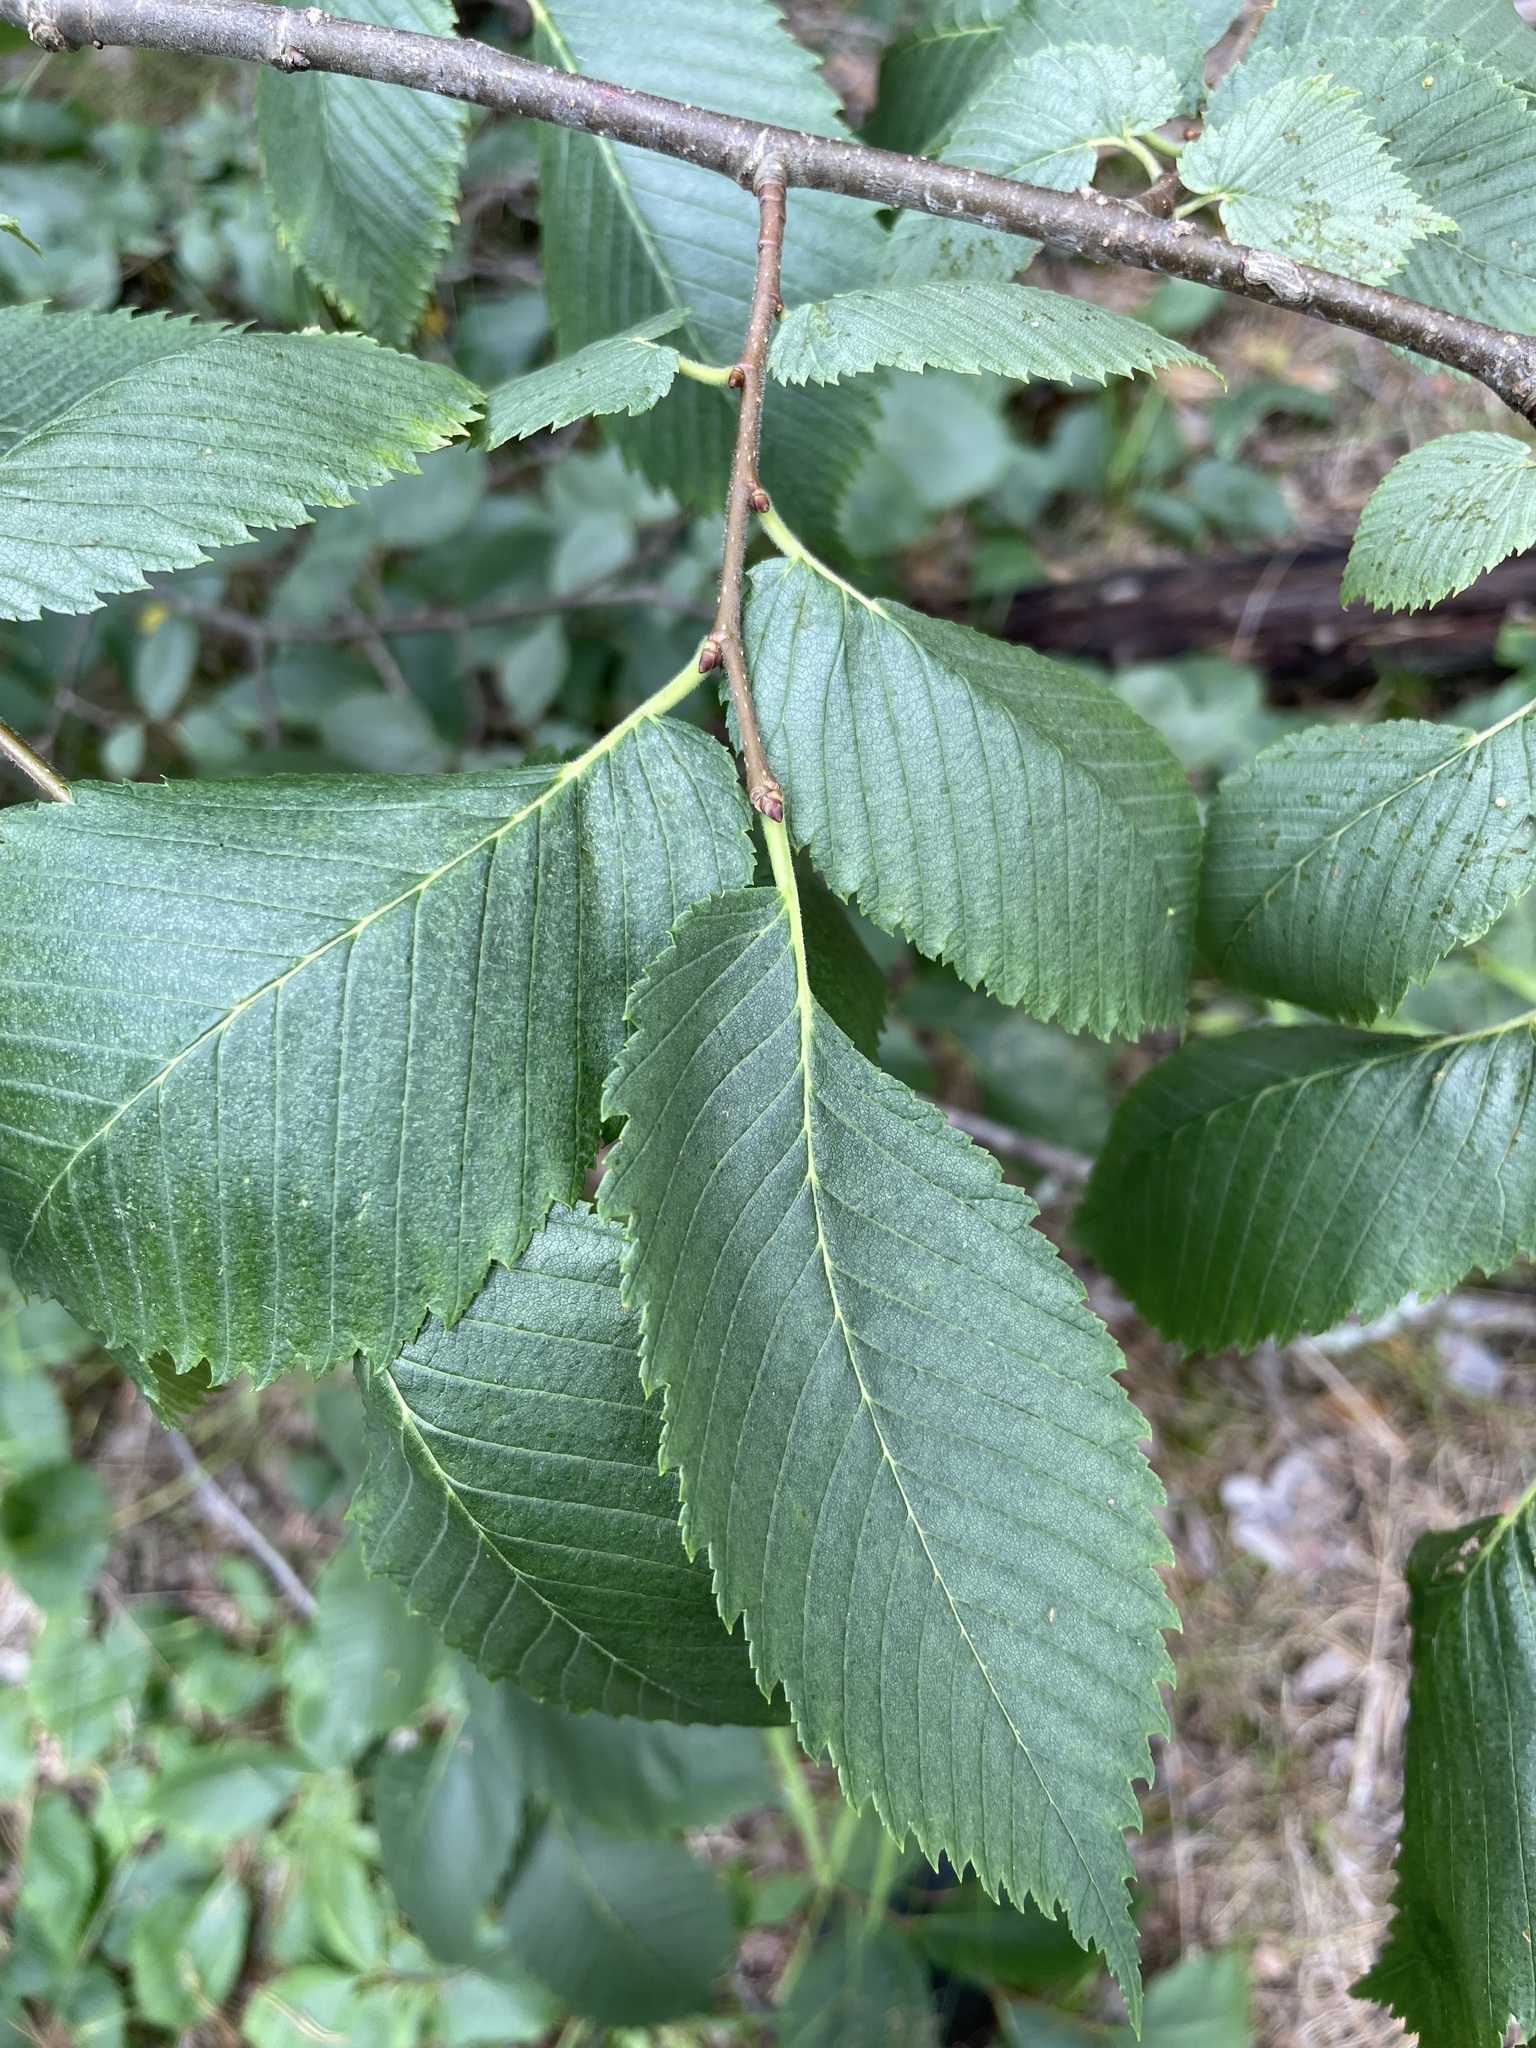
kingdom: Plantae
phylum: Tracheophyta
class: Magnoliopsida
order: Rosales
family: Ulmaceae
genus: Ulmus
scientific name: Ulmus laevis
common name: European white-elm
